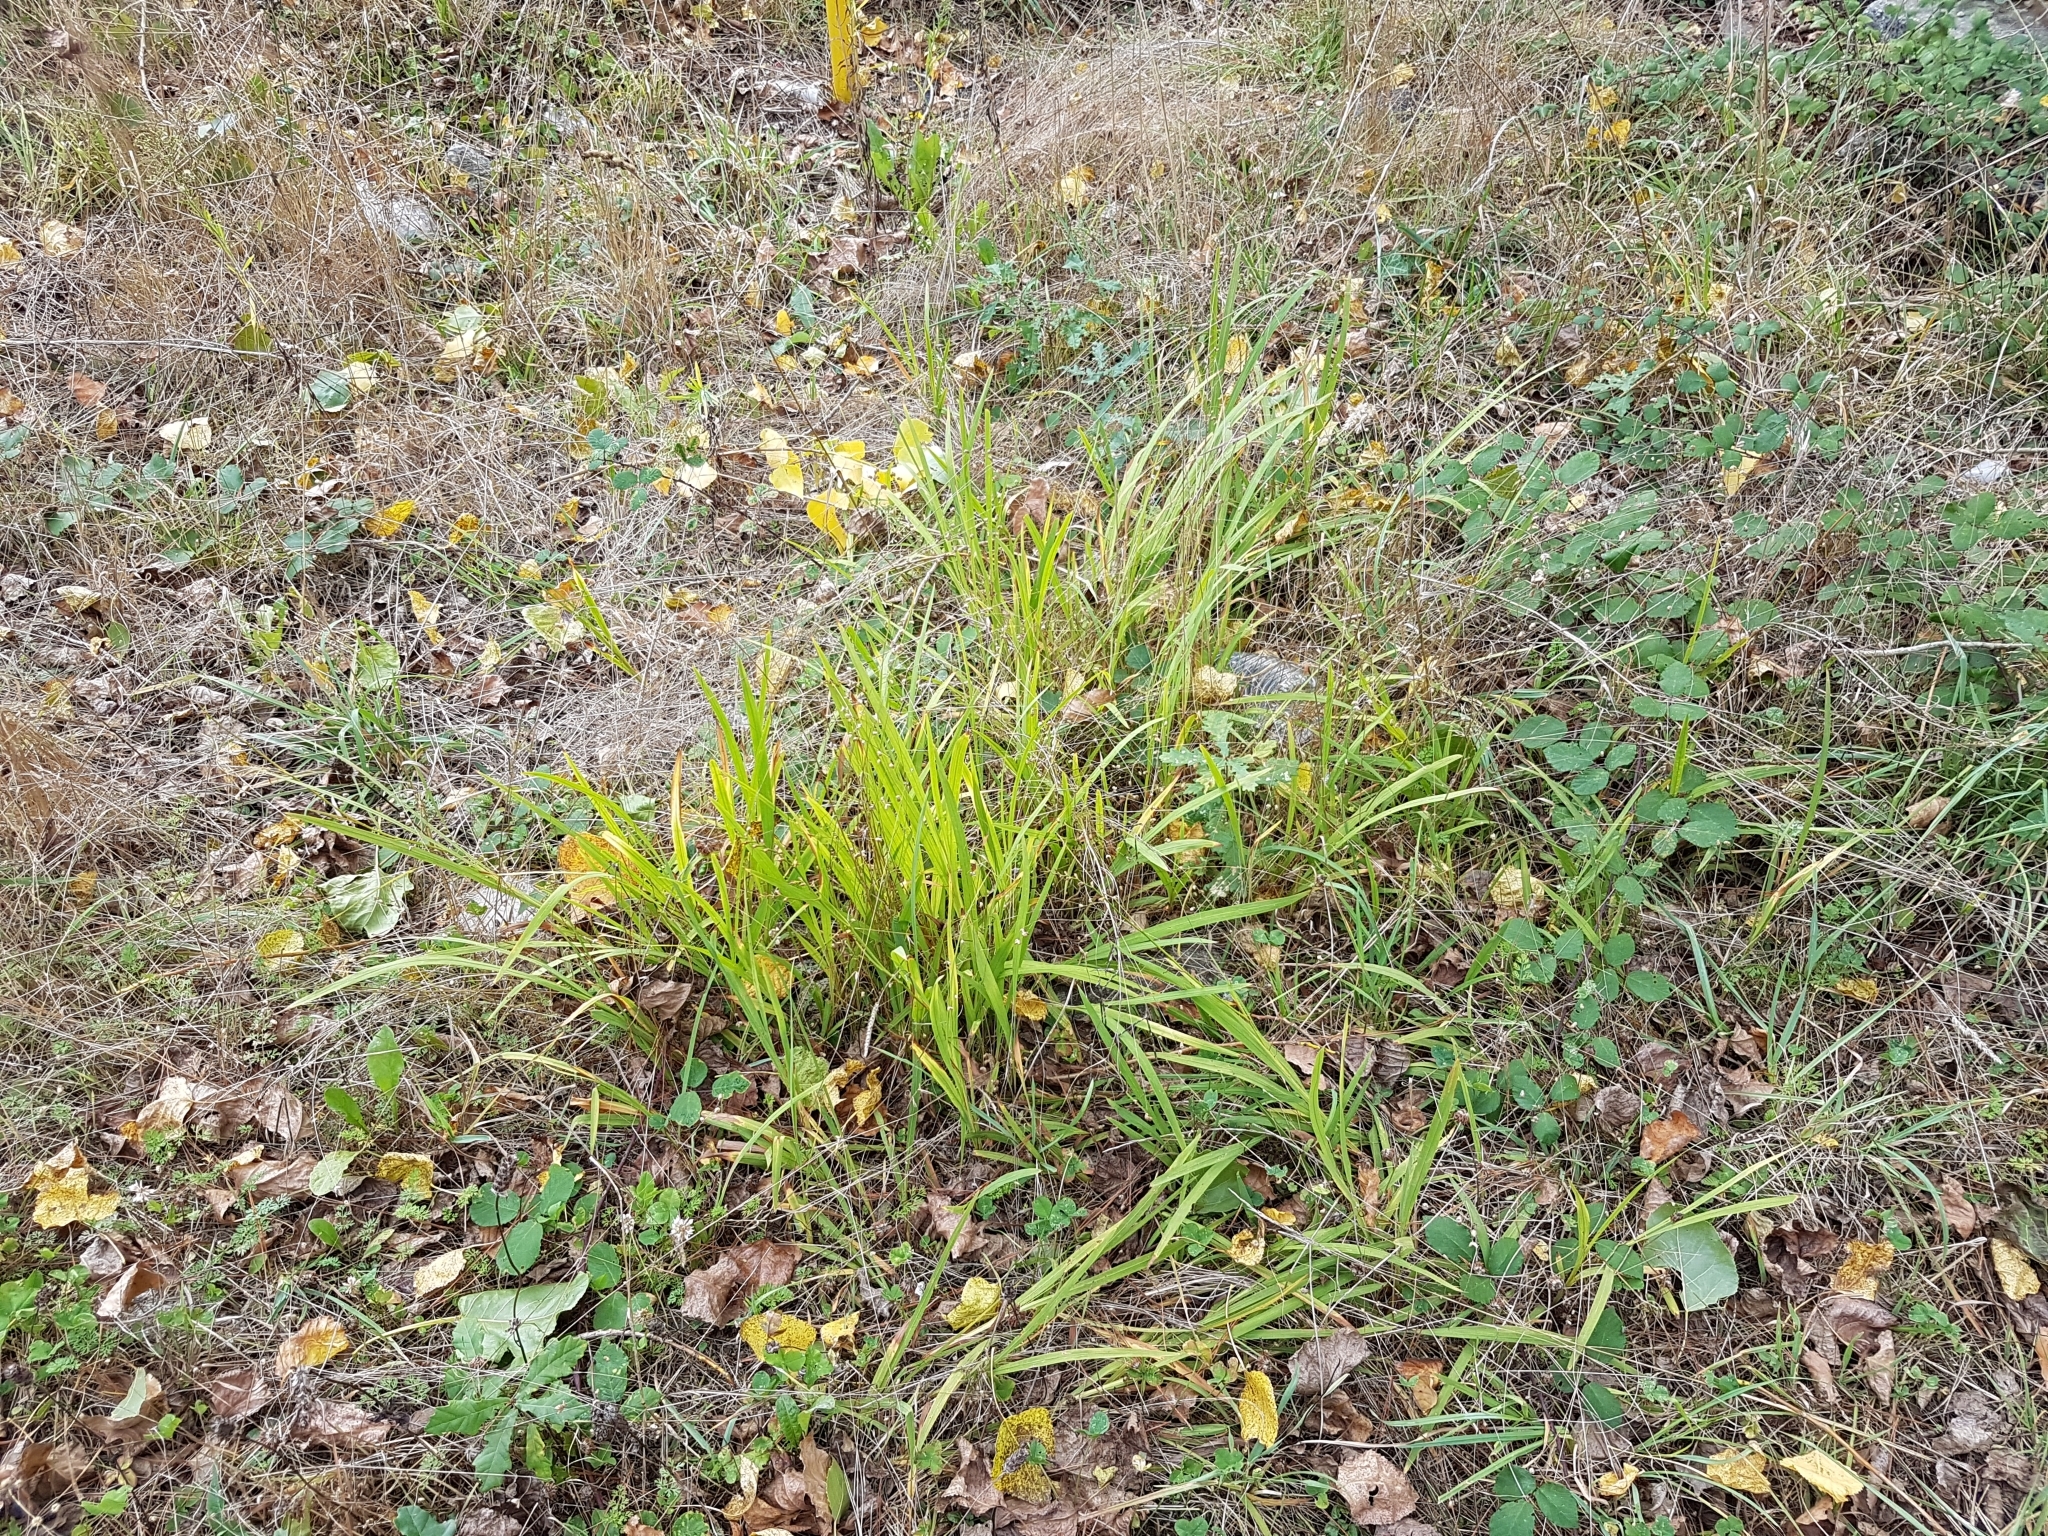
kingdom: Plantae
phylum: Tracheophyta
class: Liliopsida
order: Asparagales
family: Iridaceae
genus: Crocosmia
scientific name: Crocosmia crocosmiiflora
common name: Montbretia
